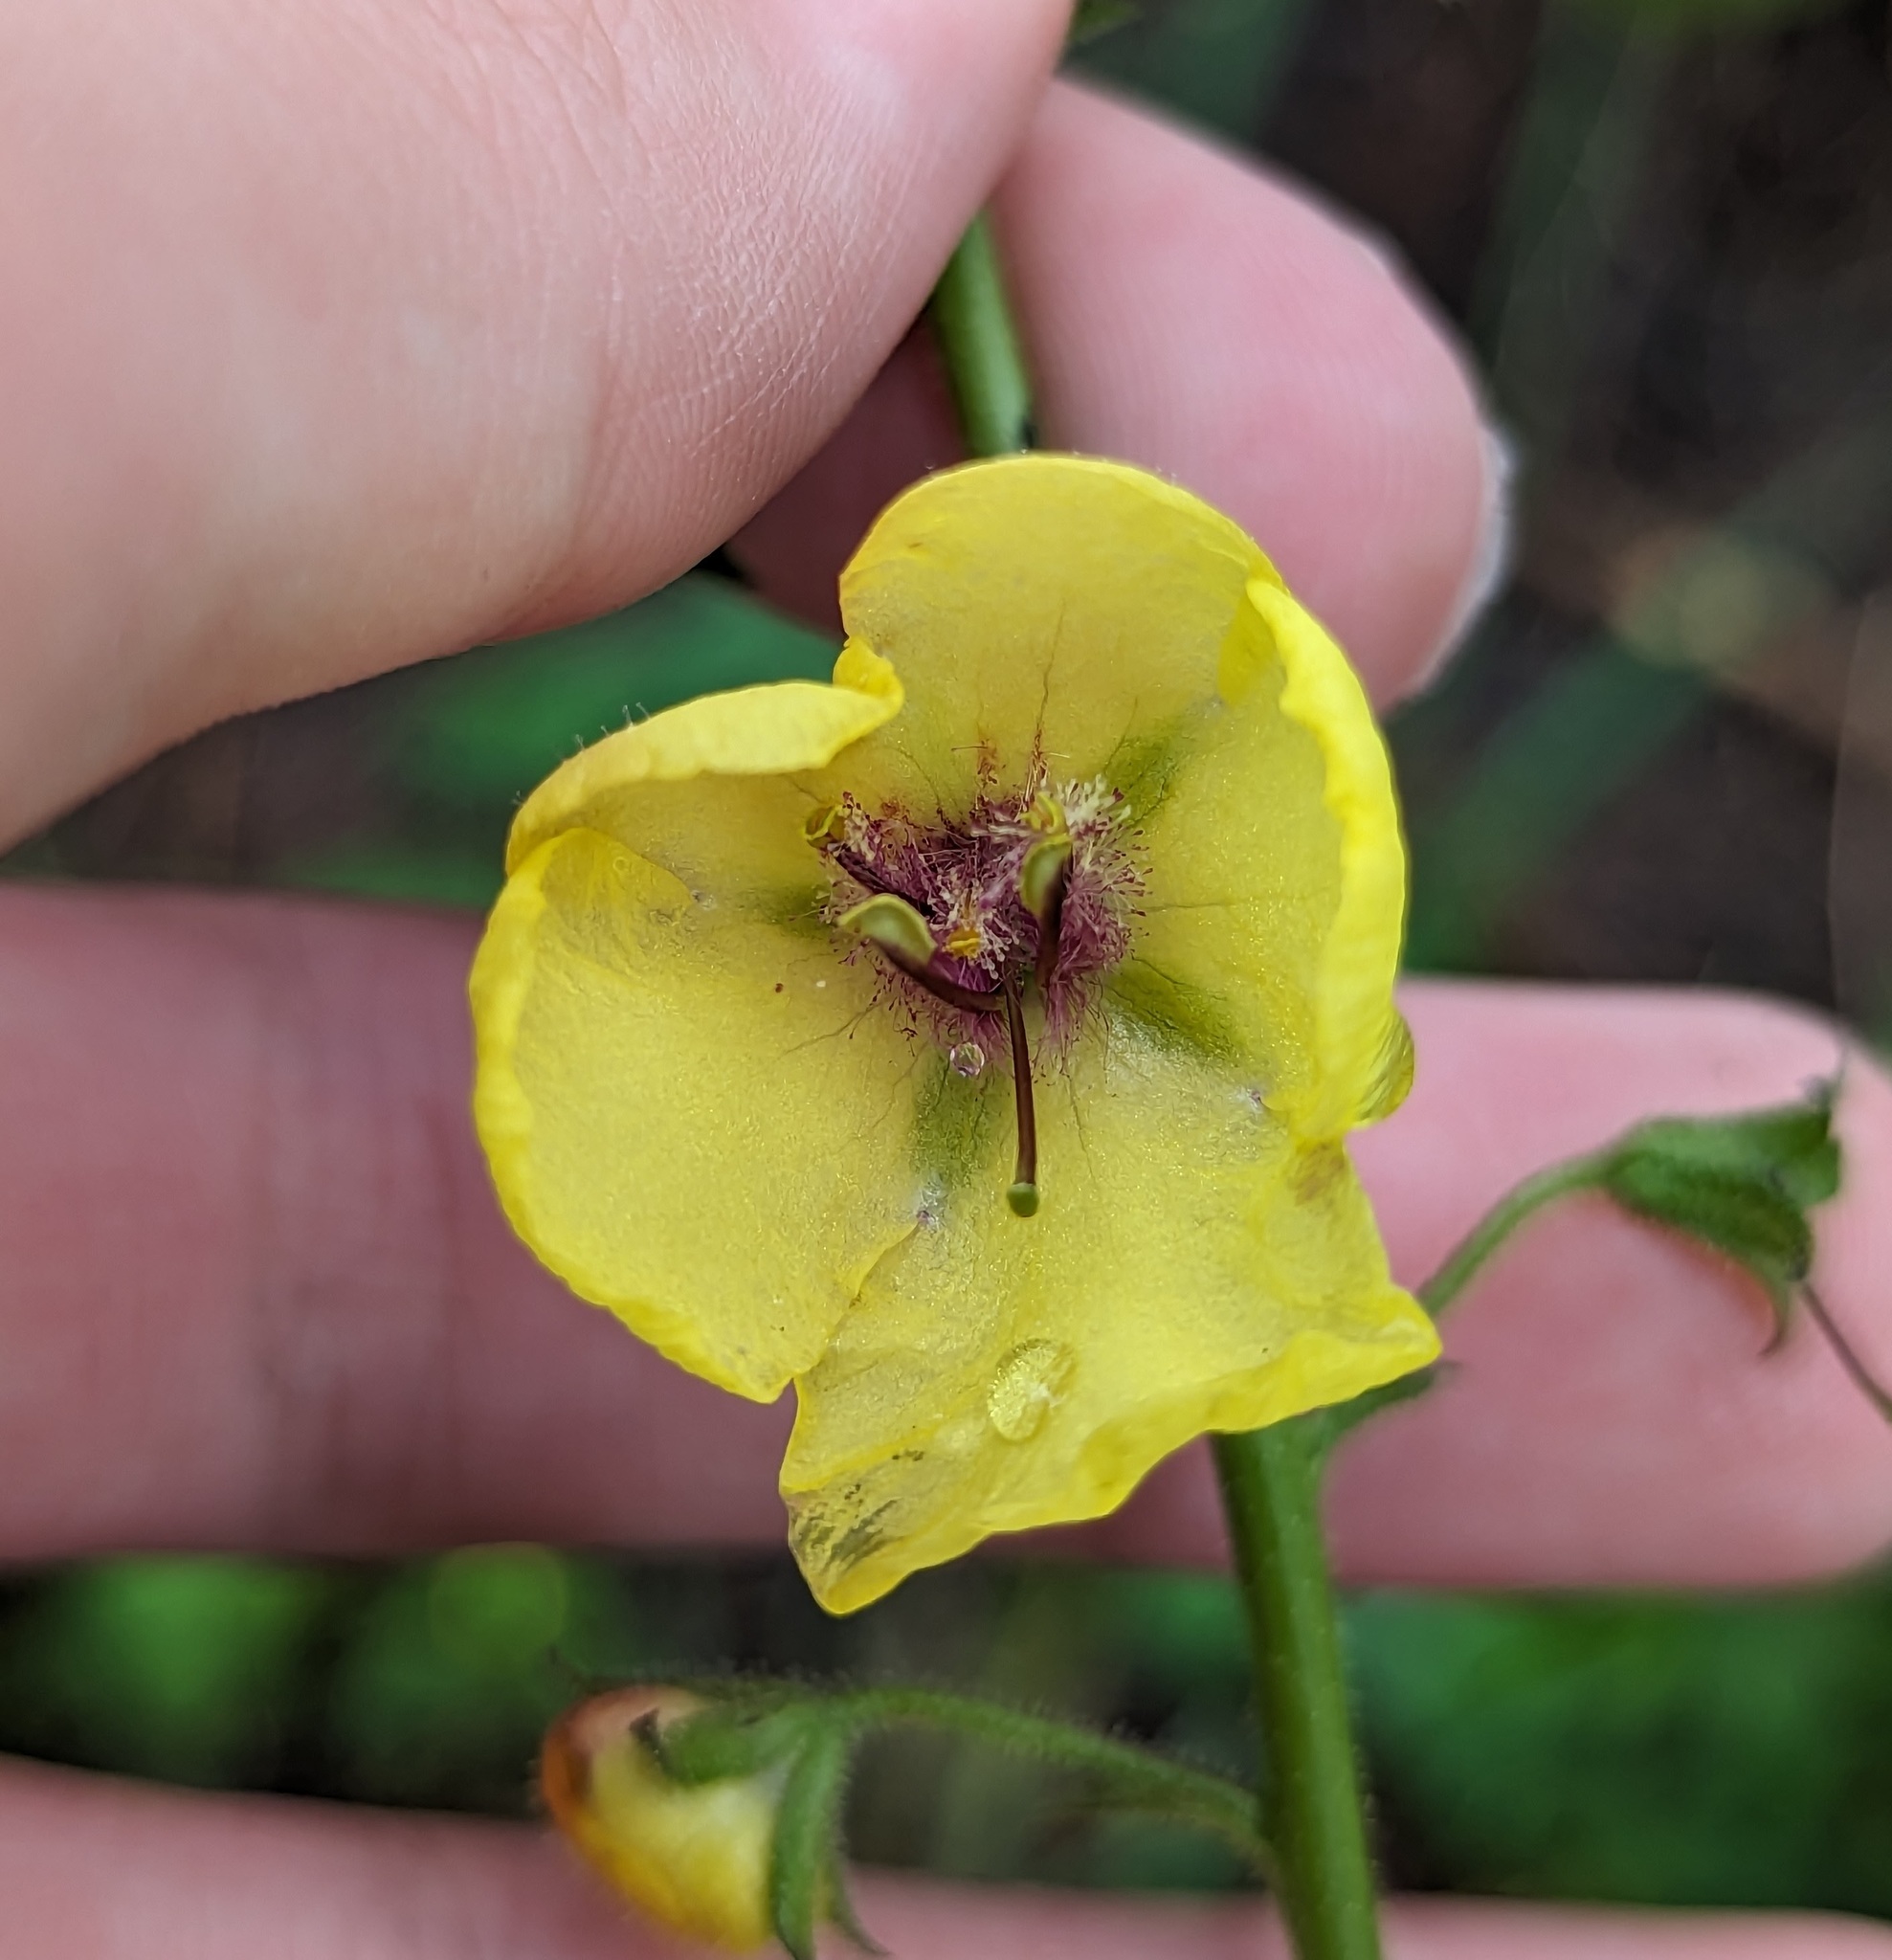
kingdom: Plantae
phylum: Tracheophyta
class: Magnoliopsida
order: Lamiales
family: Scrophulariaceae
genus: Verbascum
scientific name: Verbascum blattaria
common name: Moth mullein
